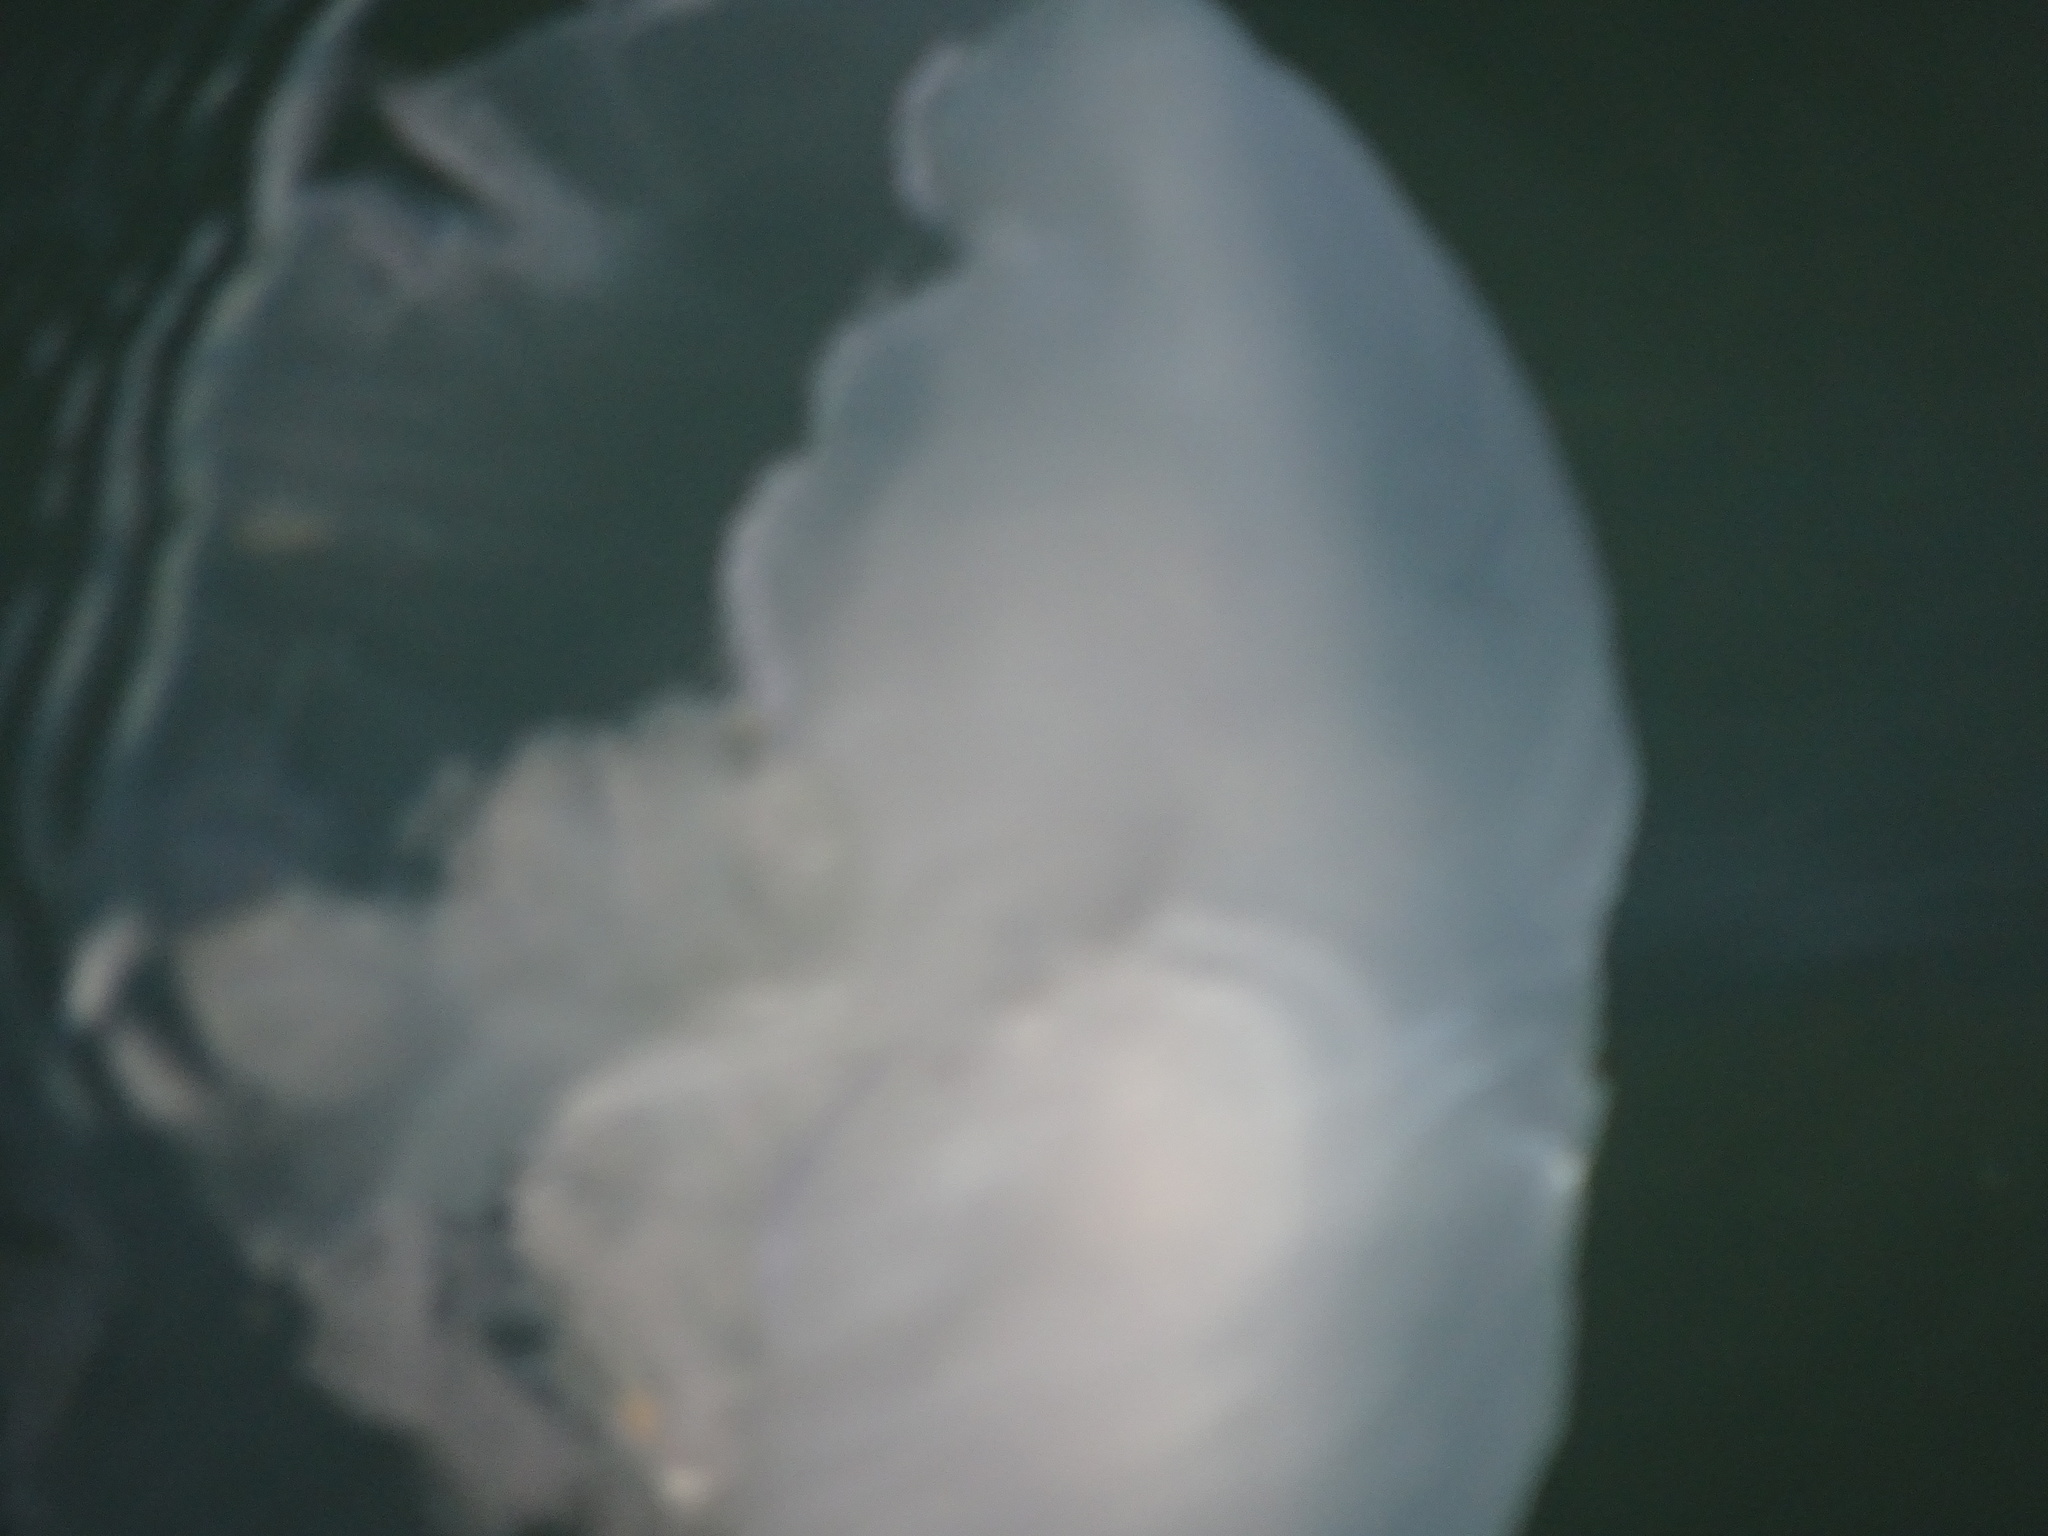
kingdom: Animalia
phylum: Cnidaria
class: Scyphozoa
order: Semaeostomeae
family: Ulmaridae
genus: Aurelia
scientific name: Aurelia labiata
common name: Pacific moon jelly
